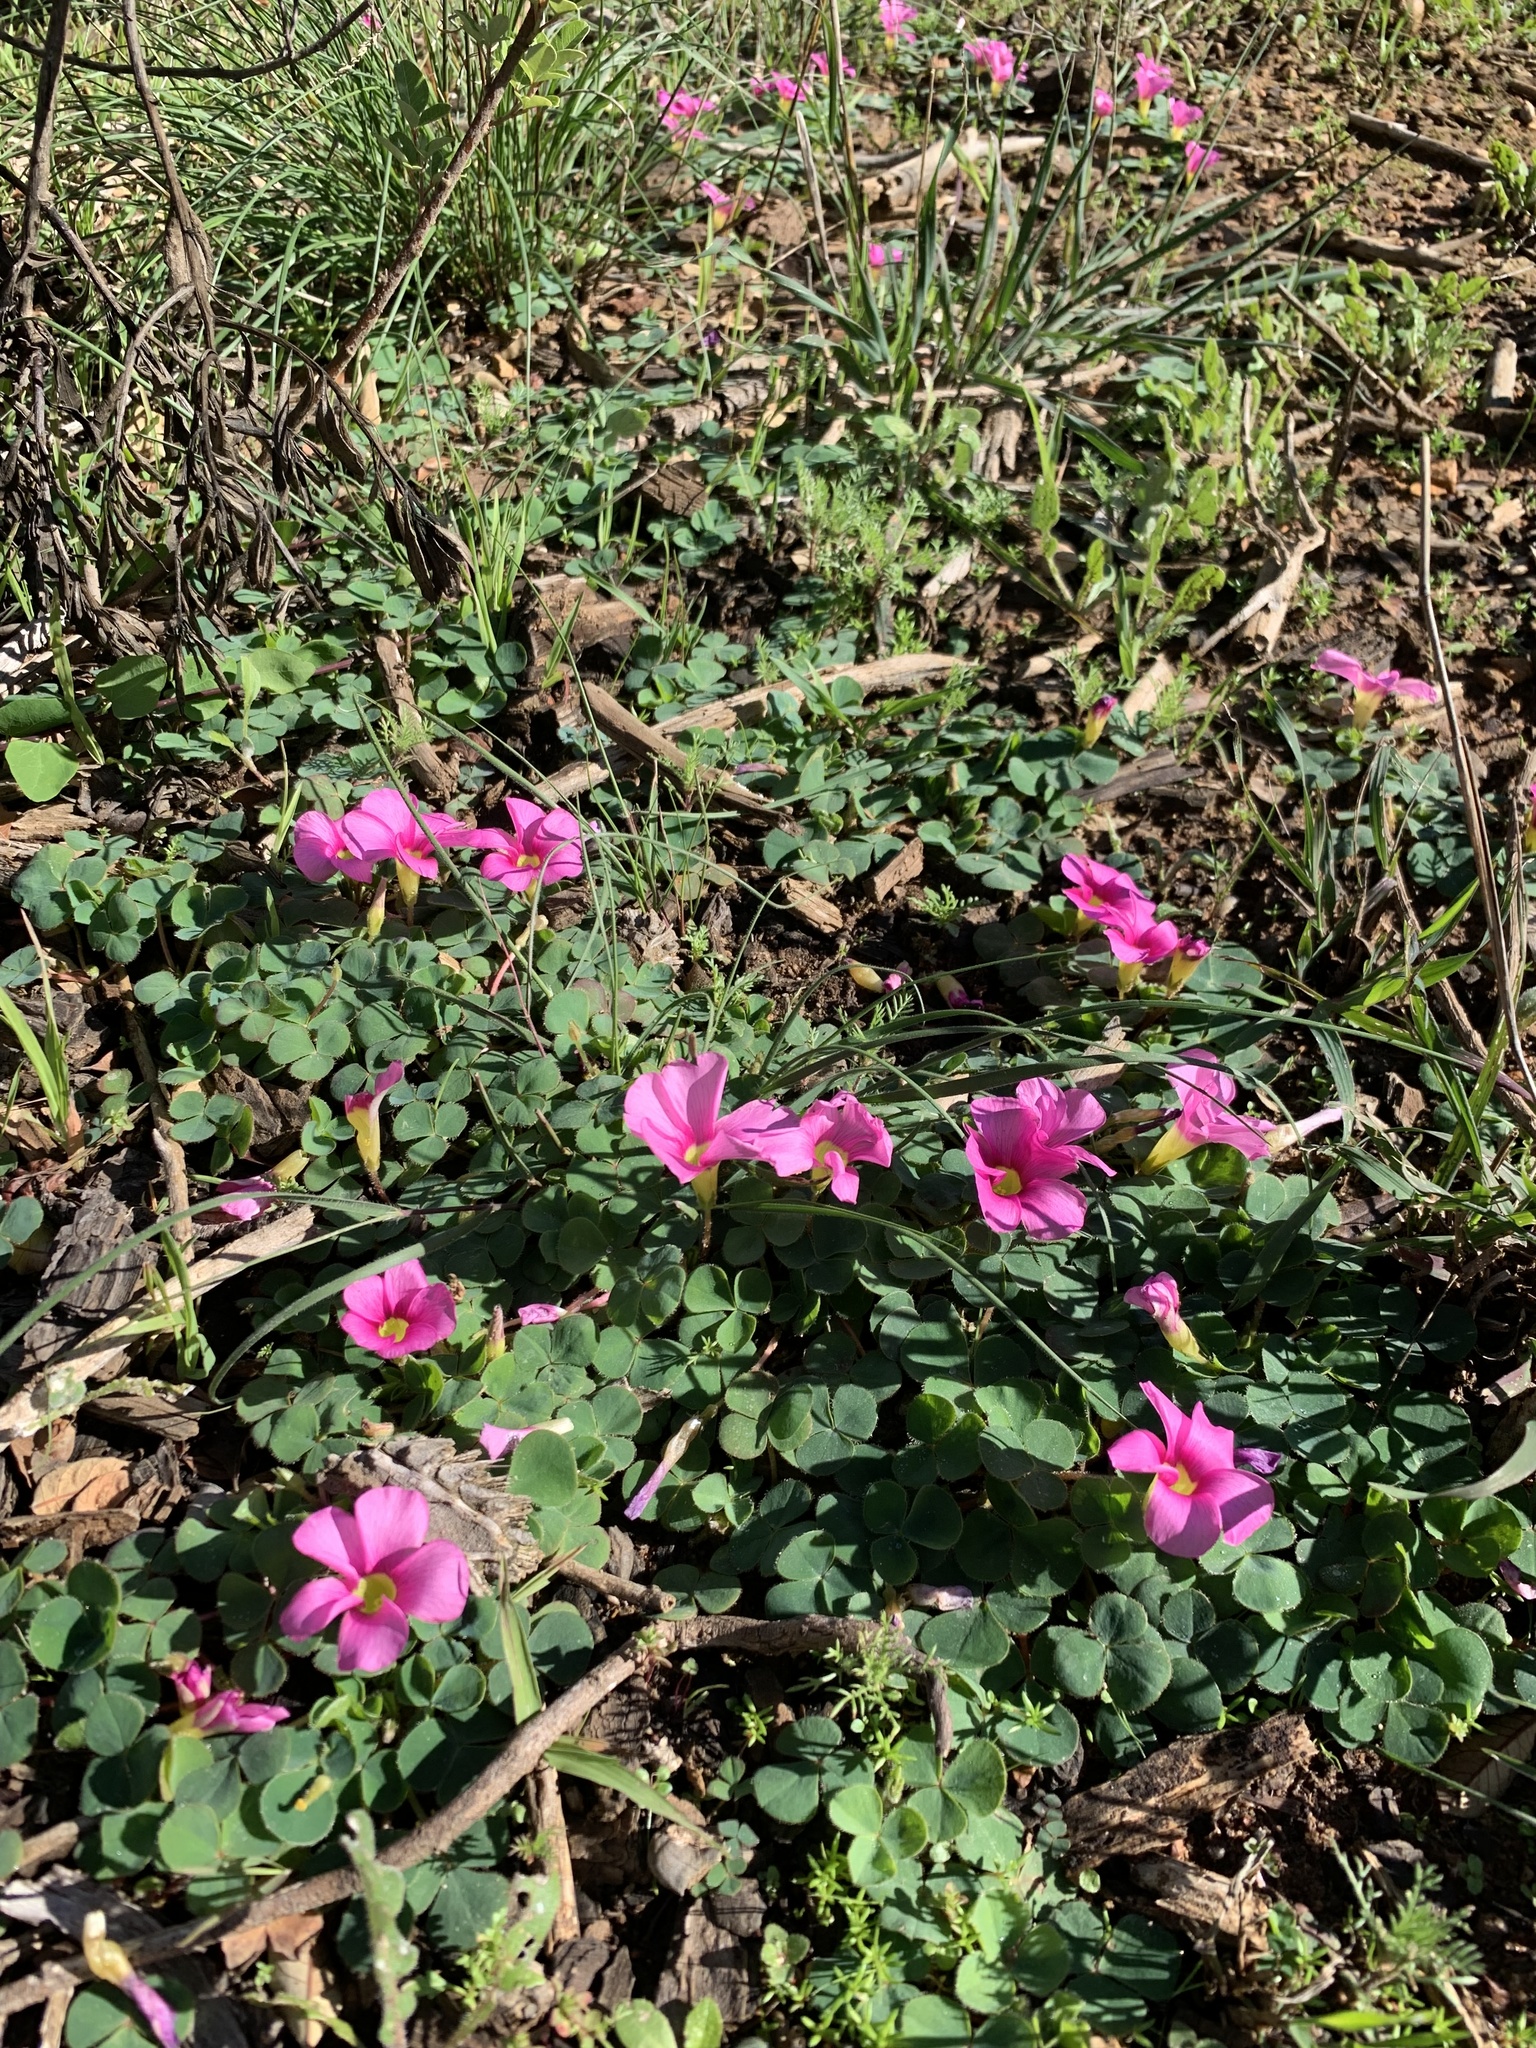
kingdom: Plantae
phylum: Tracheophyta
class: Magnoliopsida
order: Oxalidales
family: Oxalidaceae
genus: Oxalis
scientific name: Oxalis purpurea
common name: Purple woodsorrel
